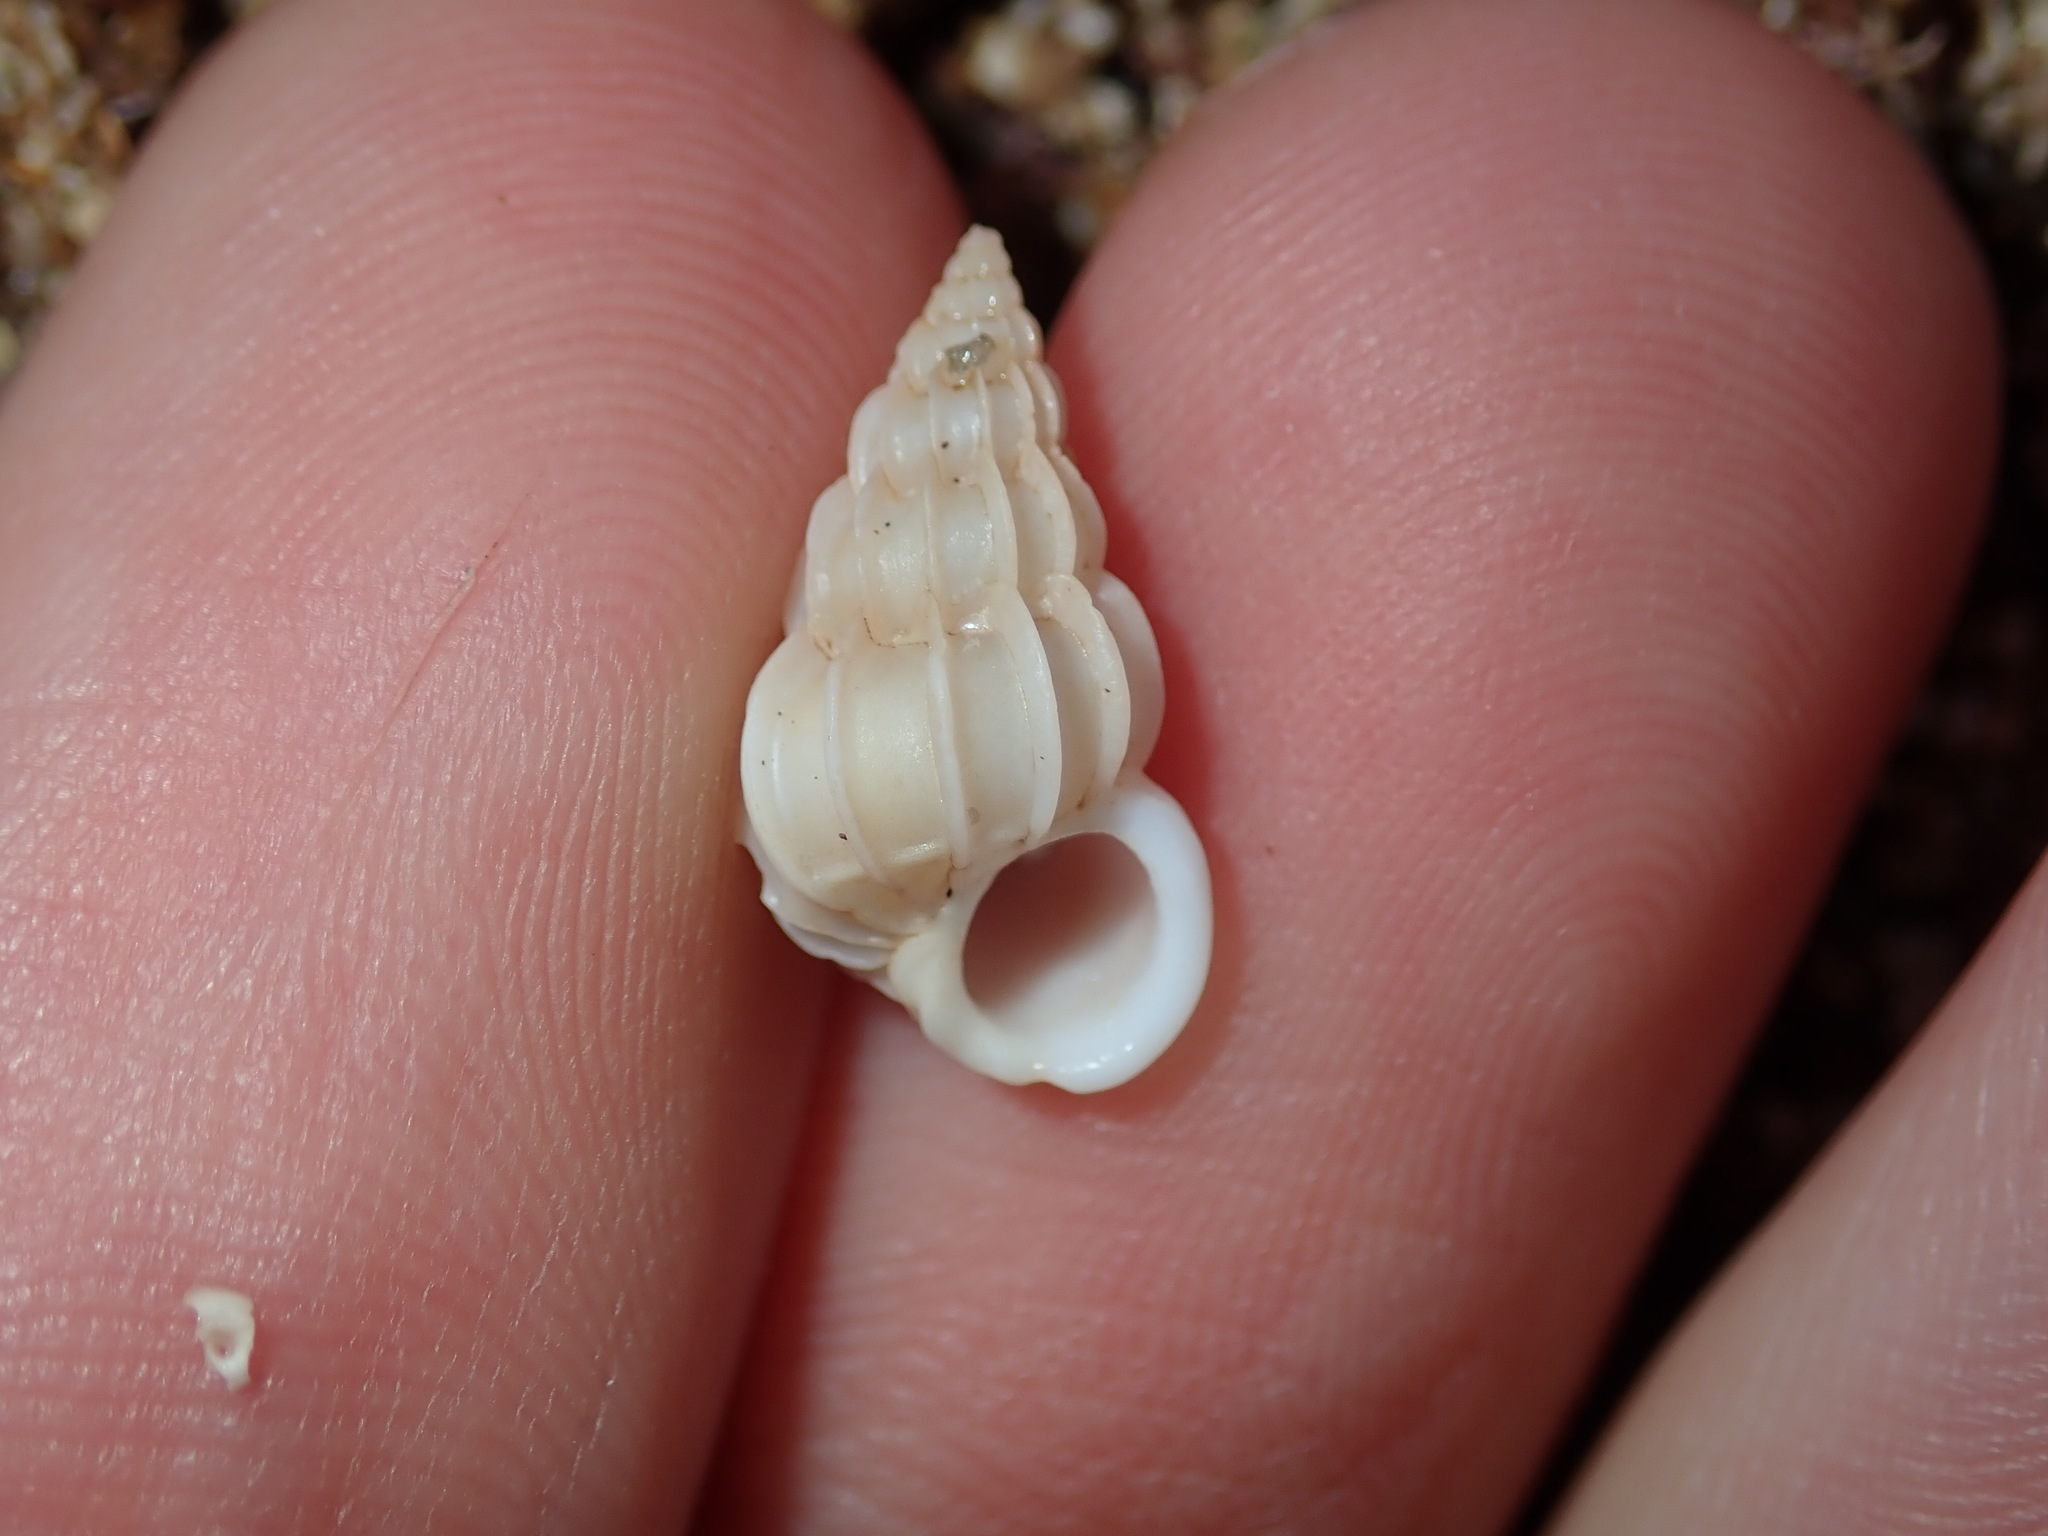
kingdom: Animalia
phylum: Mollusca
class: Gastropoda
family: Epitoniidae
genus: Gyroscala
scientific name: Gyroscala commutata
